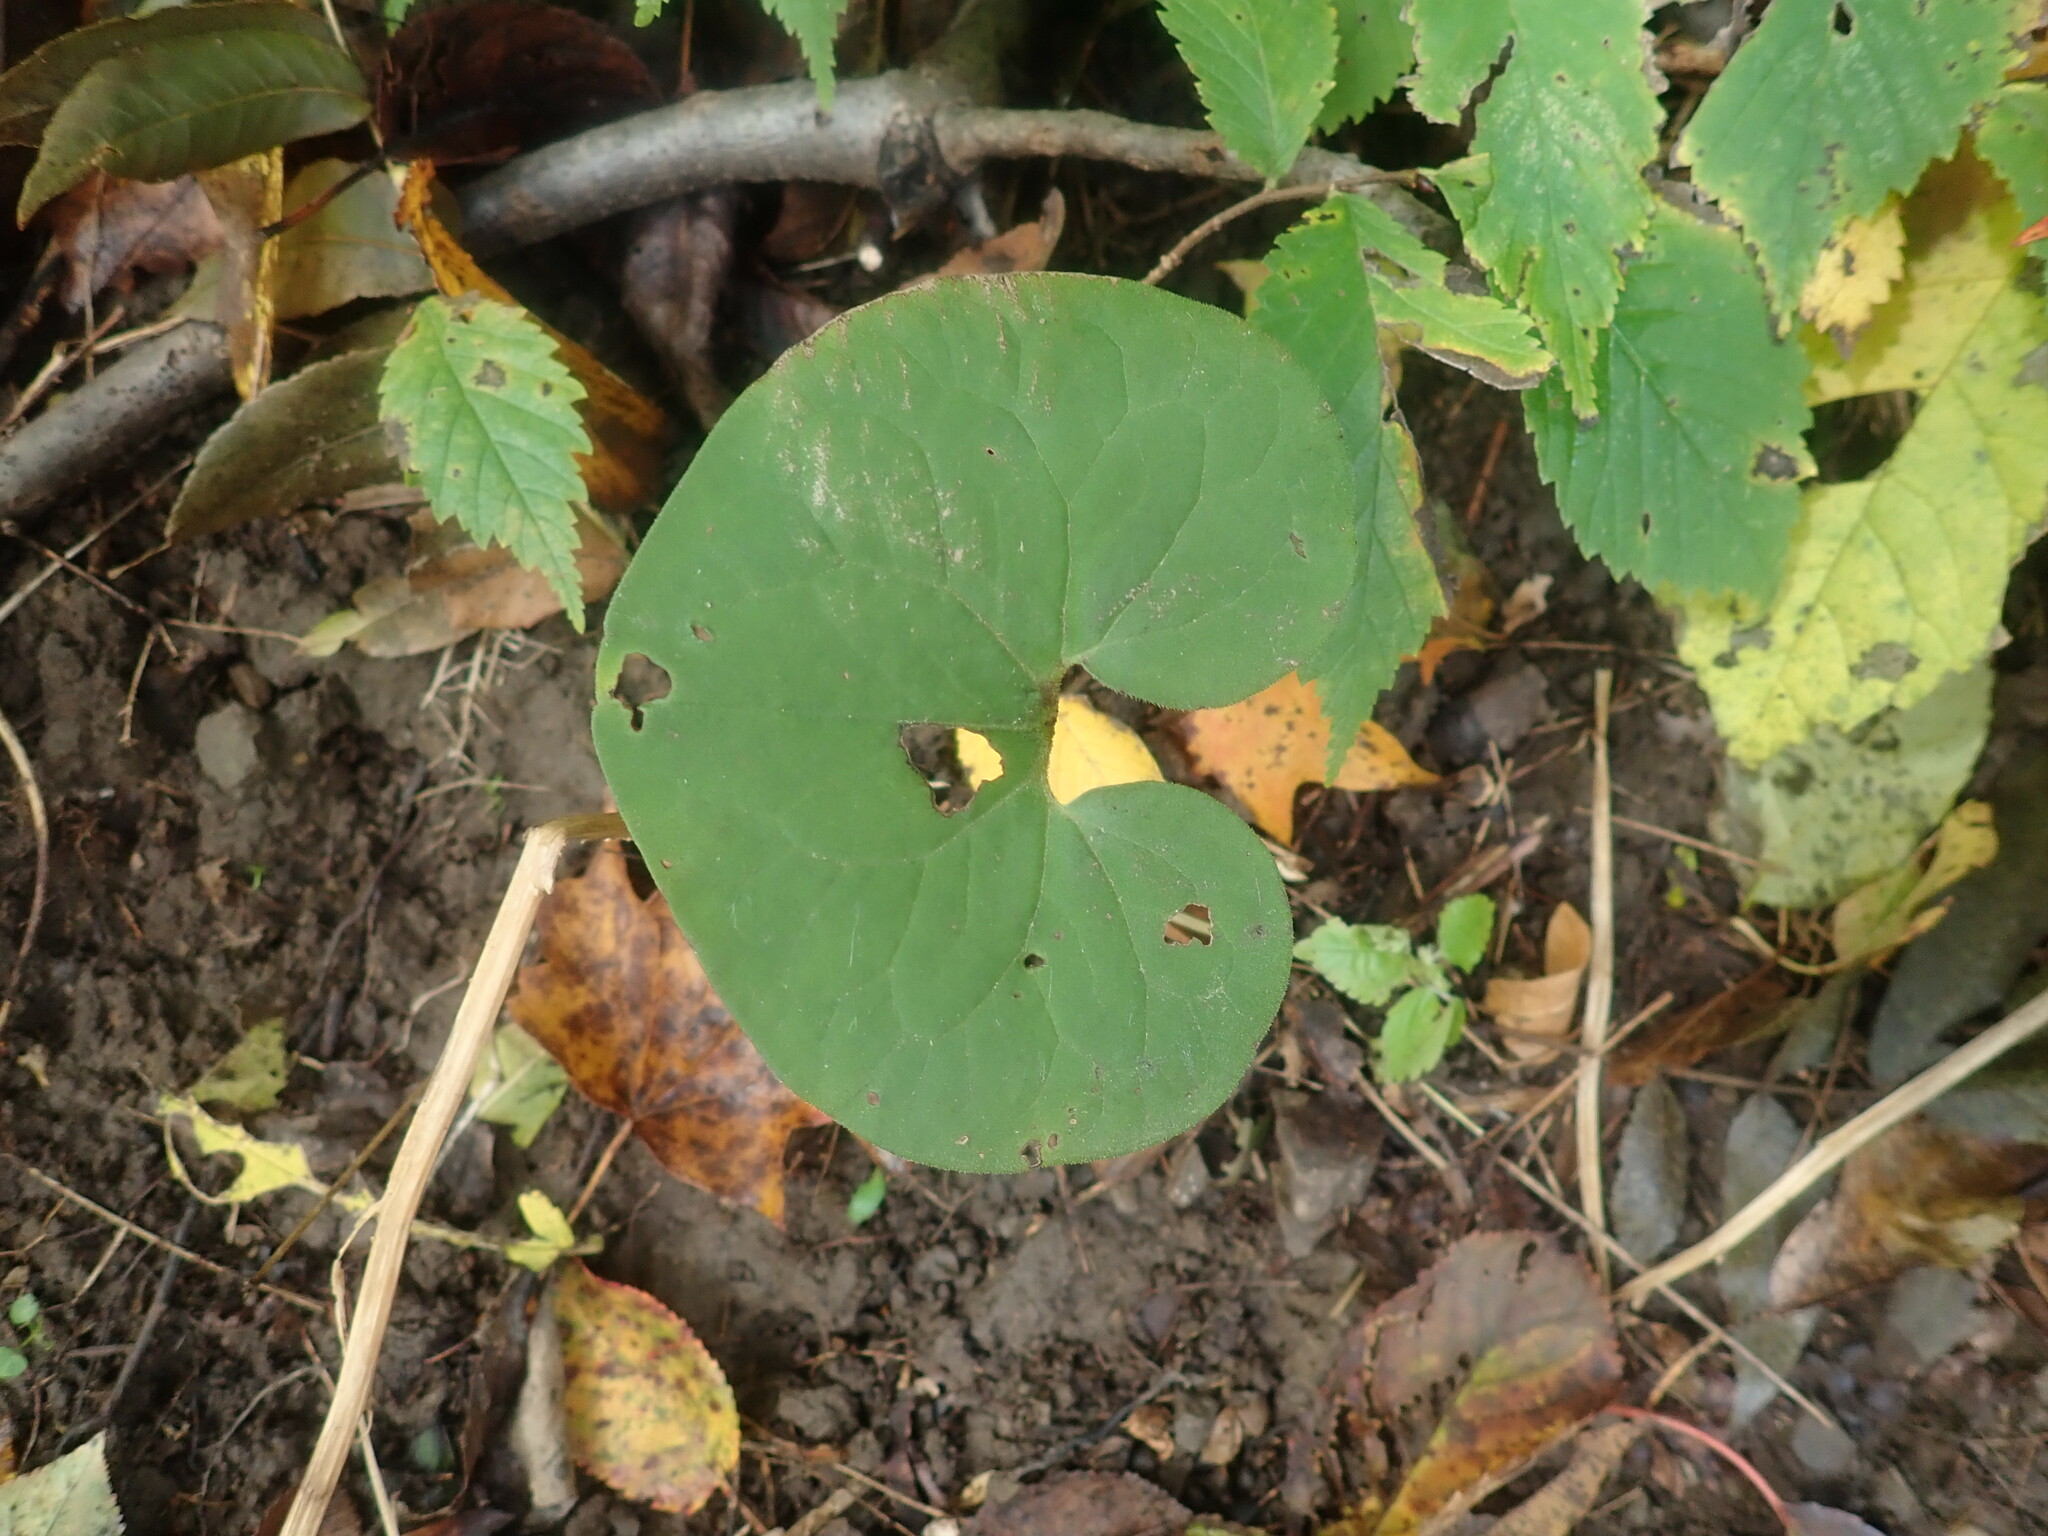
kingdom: Plantae
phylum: Tracheophyta
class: Magnoliopsida
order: Piperales
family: Aristolochiaceae
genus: Asarum
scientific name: Asarum canadense
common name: Wild ginger
